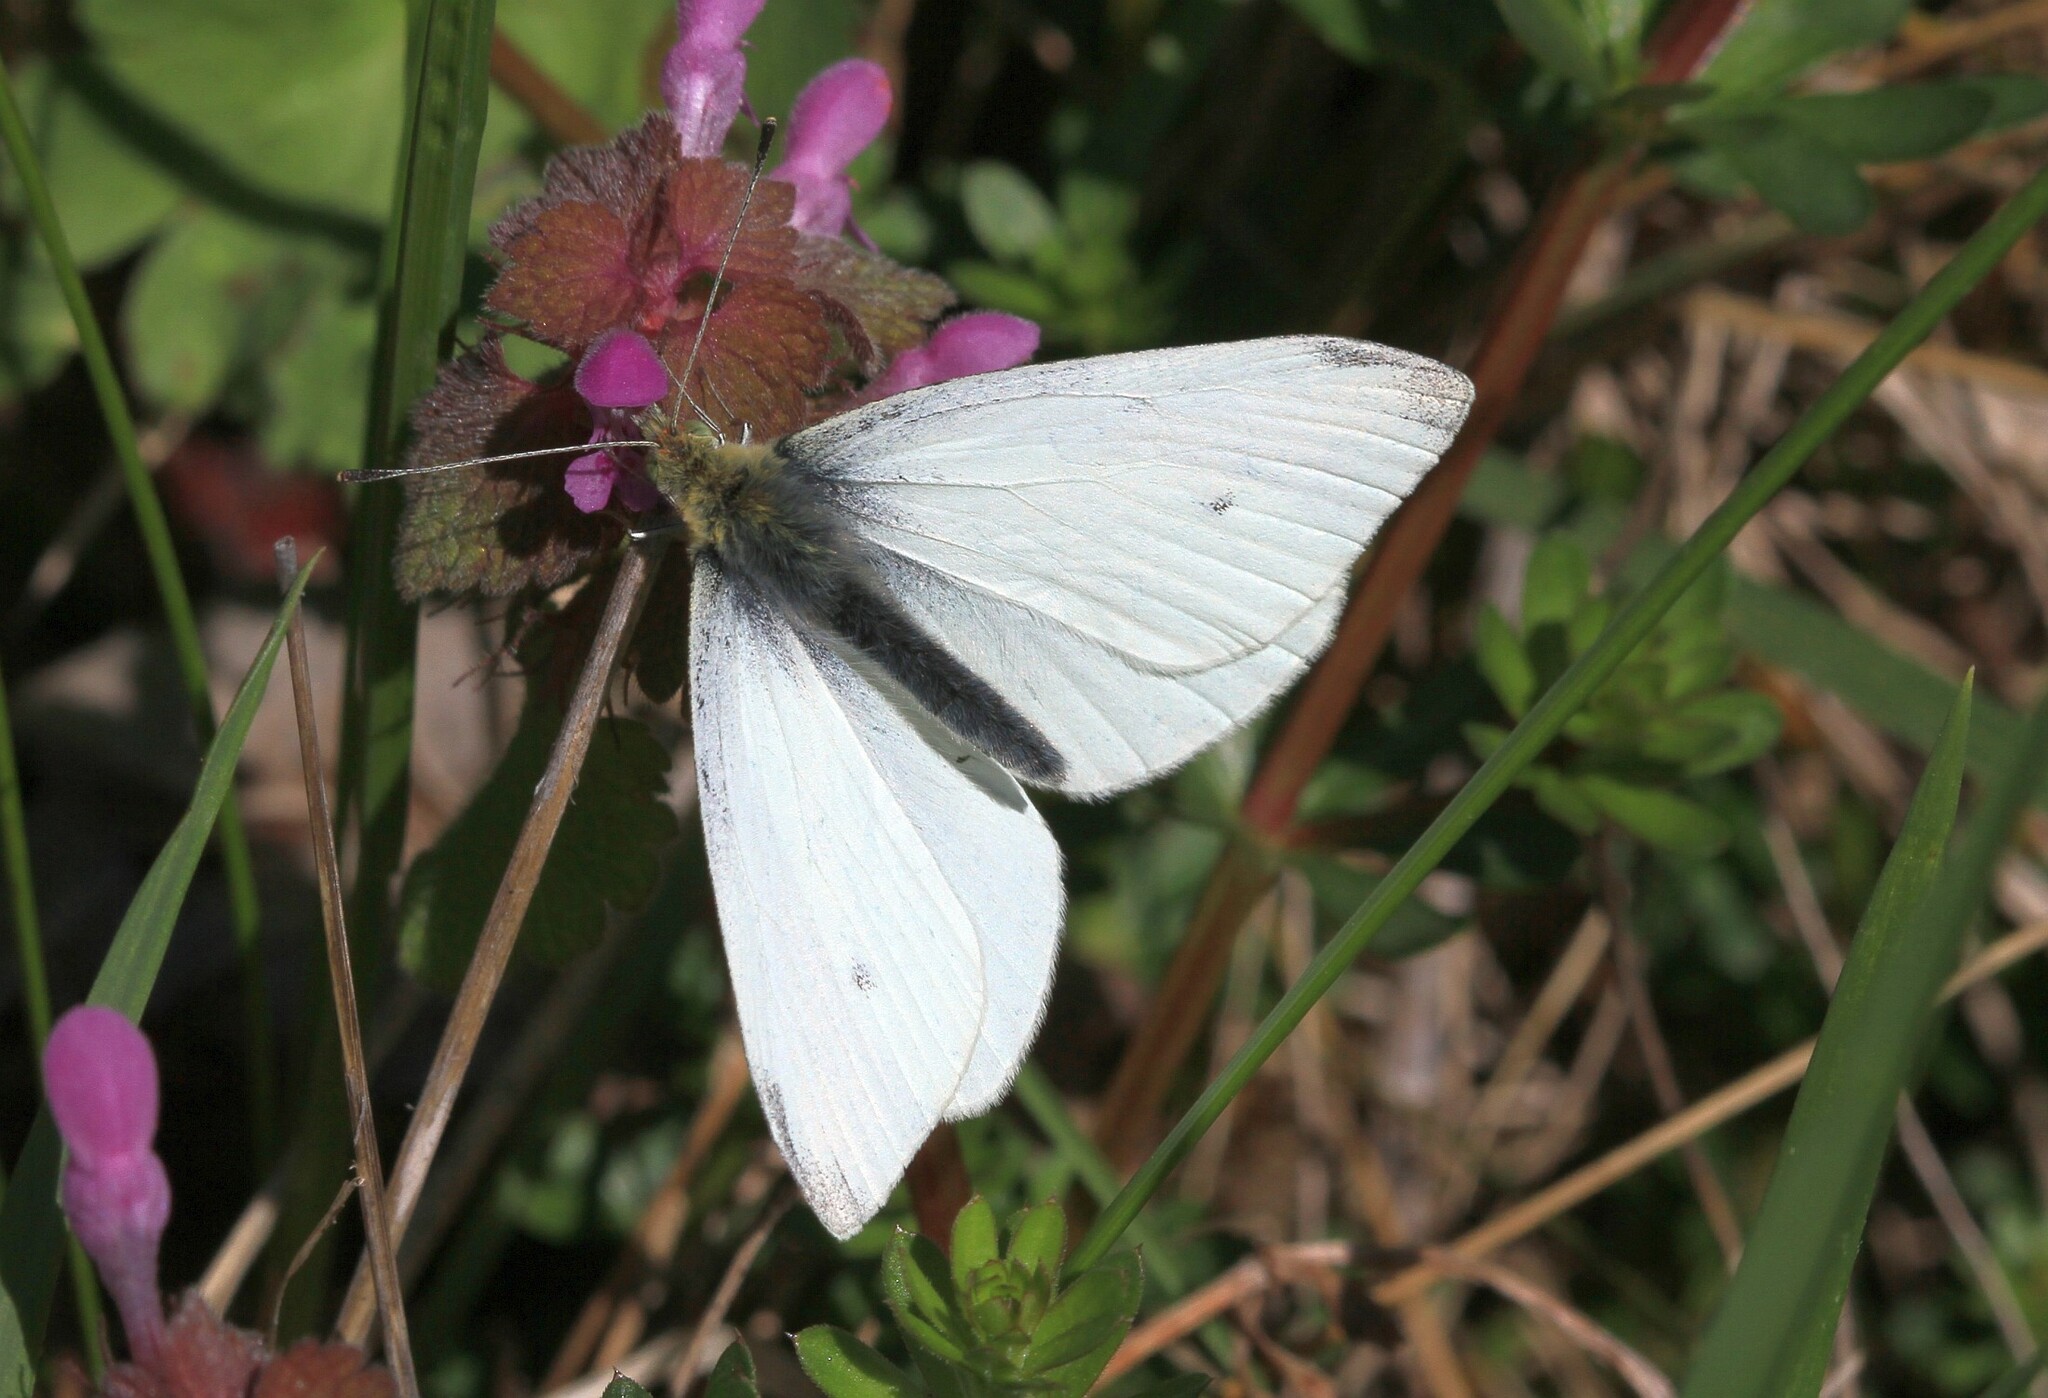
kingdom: Animalia
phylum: Arthropoda
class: Insecta
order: Lepidoptera
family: Pieridae
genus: Pieris
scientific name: Pieris rapae
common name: Small white
